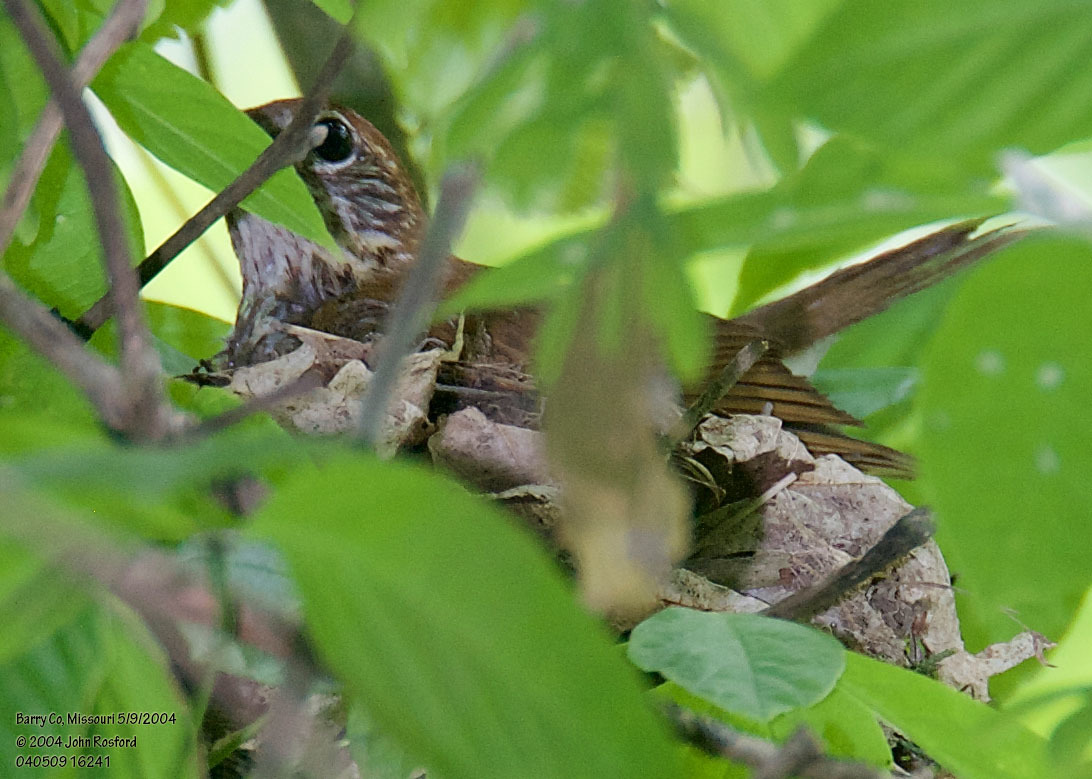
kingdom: Animalia
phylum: Chordata
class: Aves
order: Passeriformes
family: Turdidae
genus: Hylocichla
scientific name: Hylocichla mustelina
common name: Wood thrush
